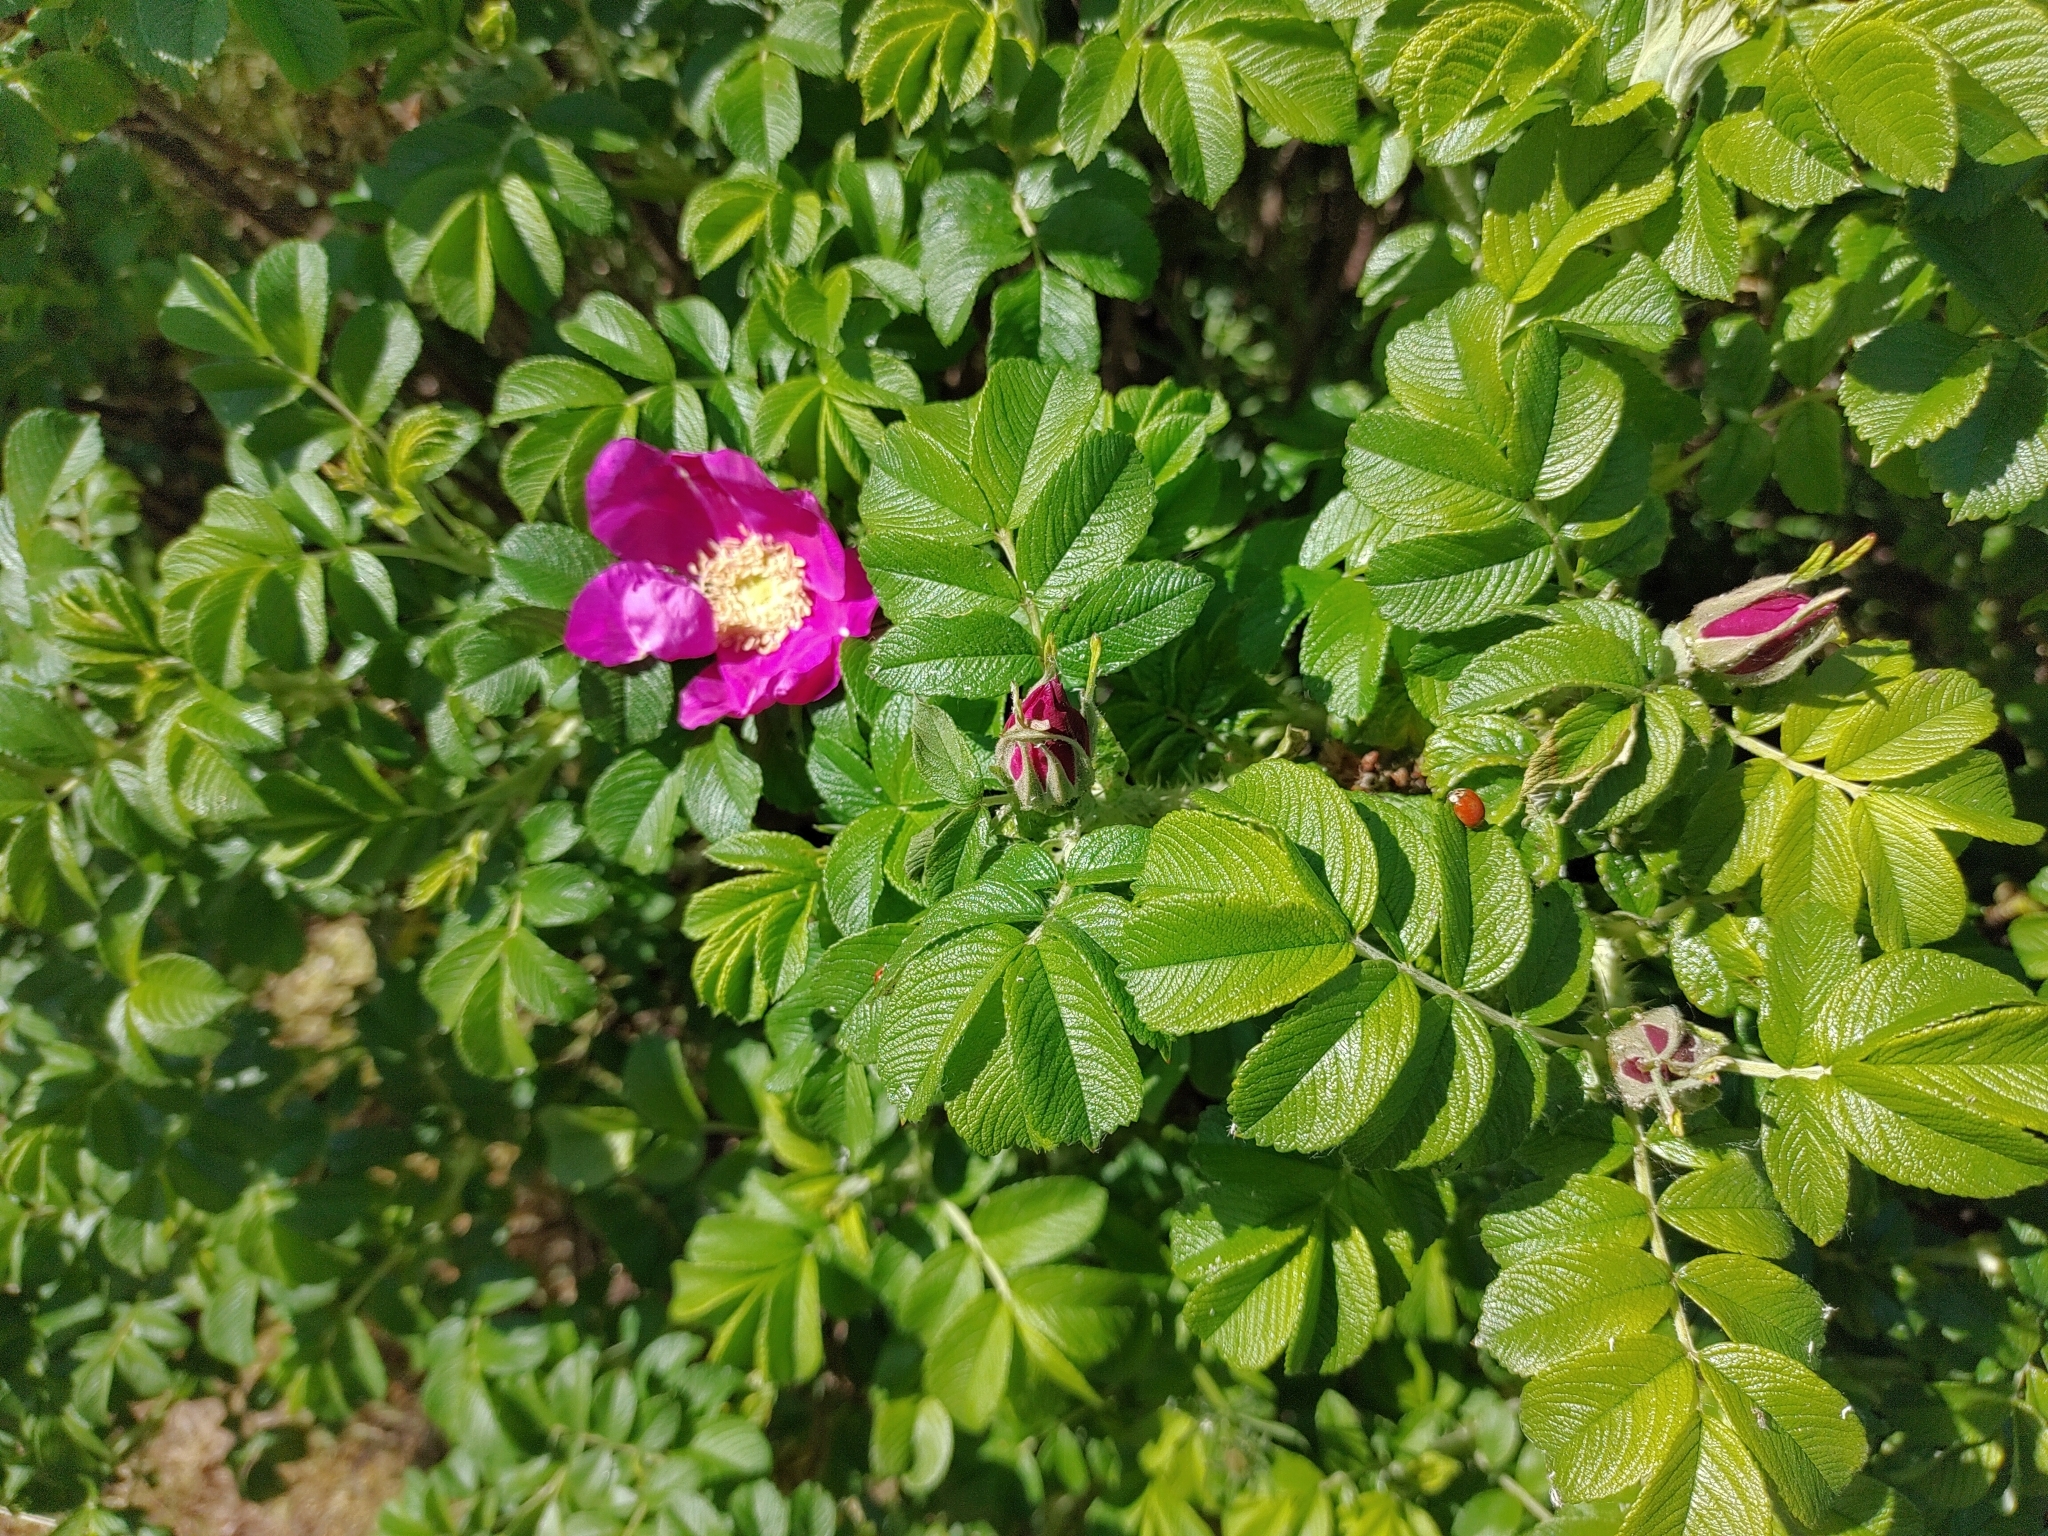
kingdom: Plantae
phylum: Tracheophyta
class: Magnoliopsida
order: Rosales
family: Rosaceae
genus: Rosa
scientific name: Rosa rugosa
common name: Japanese rose
